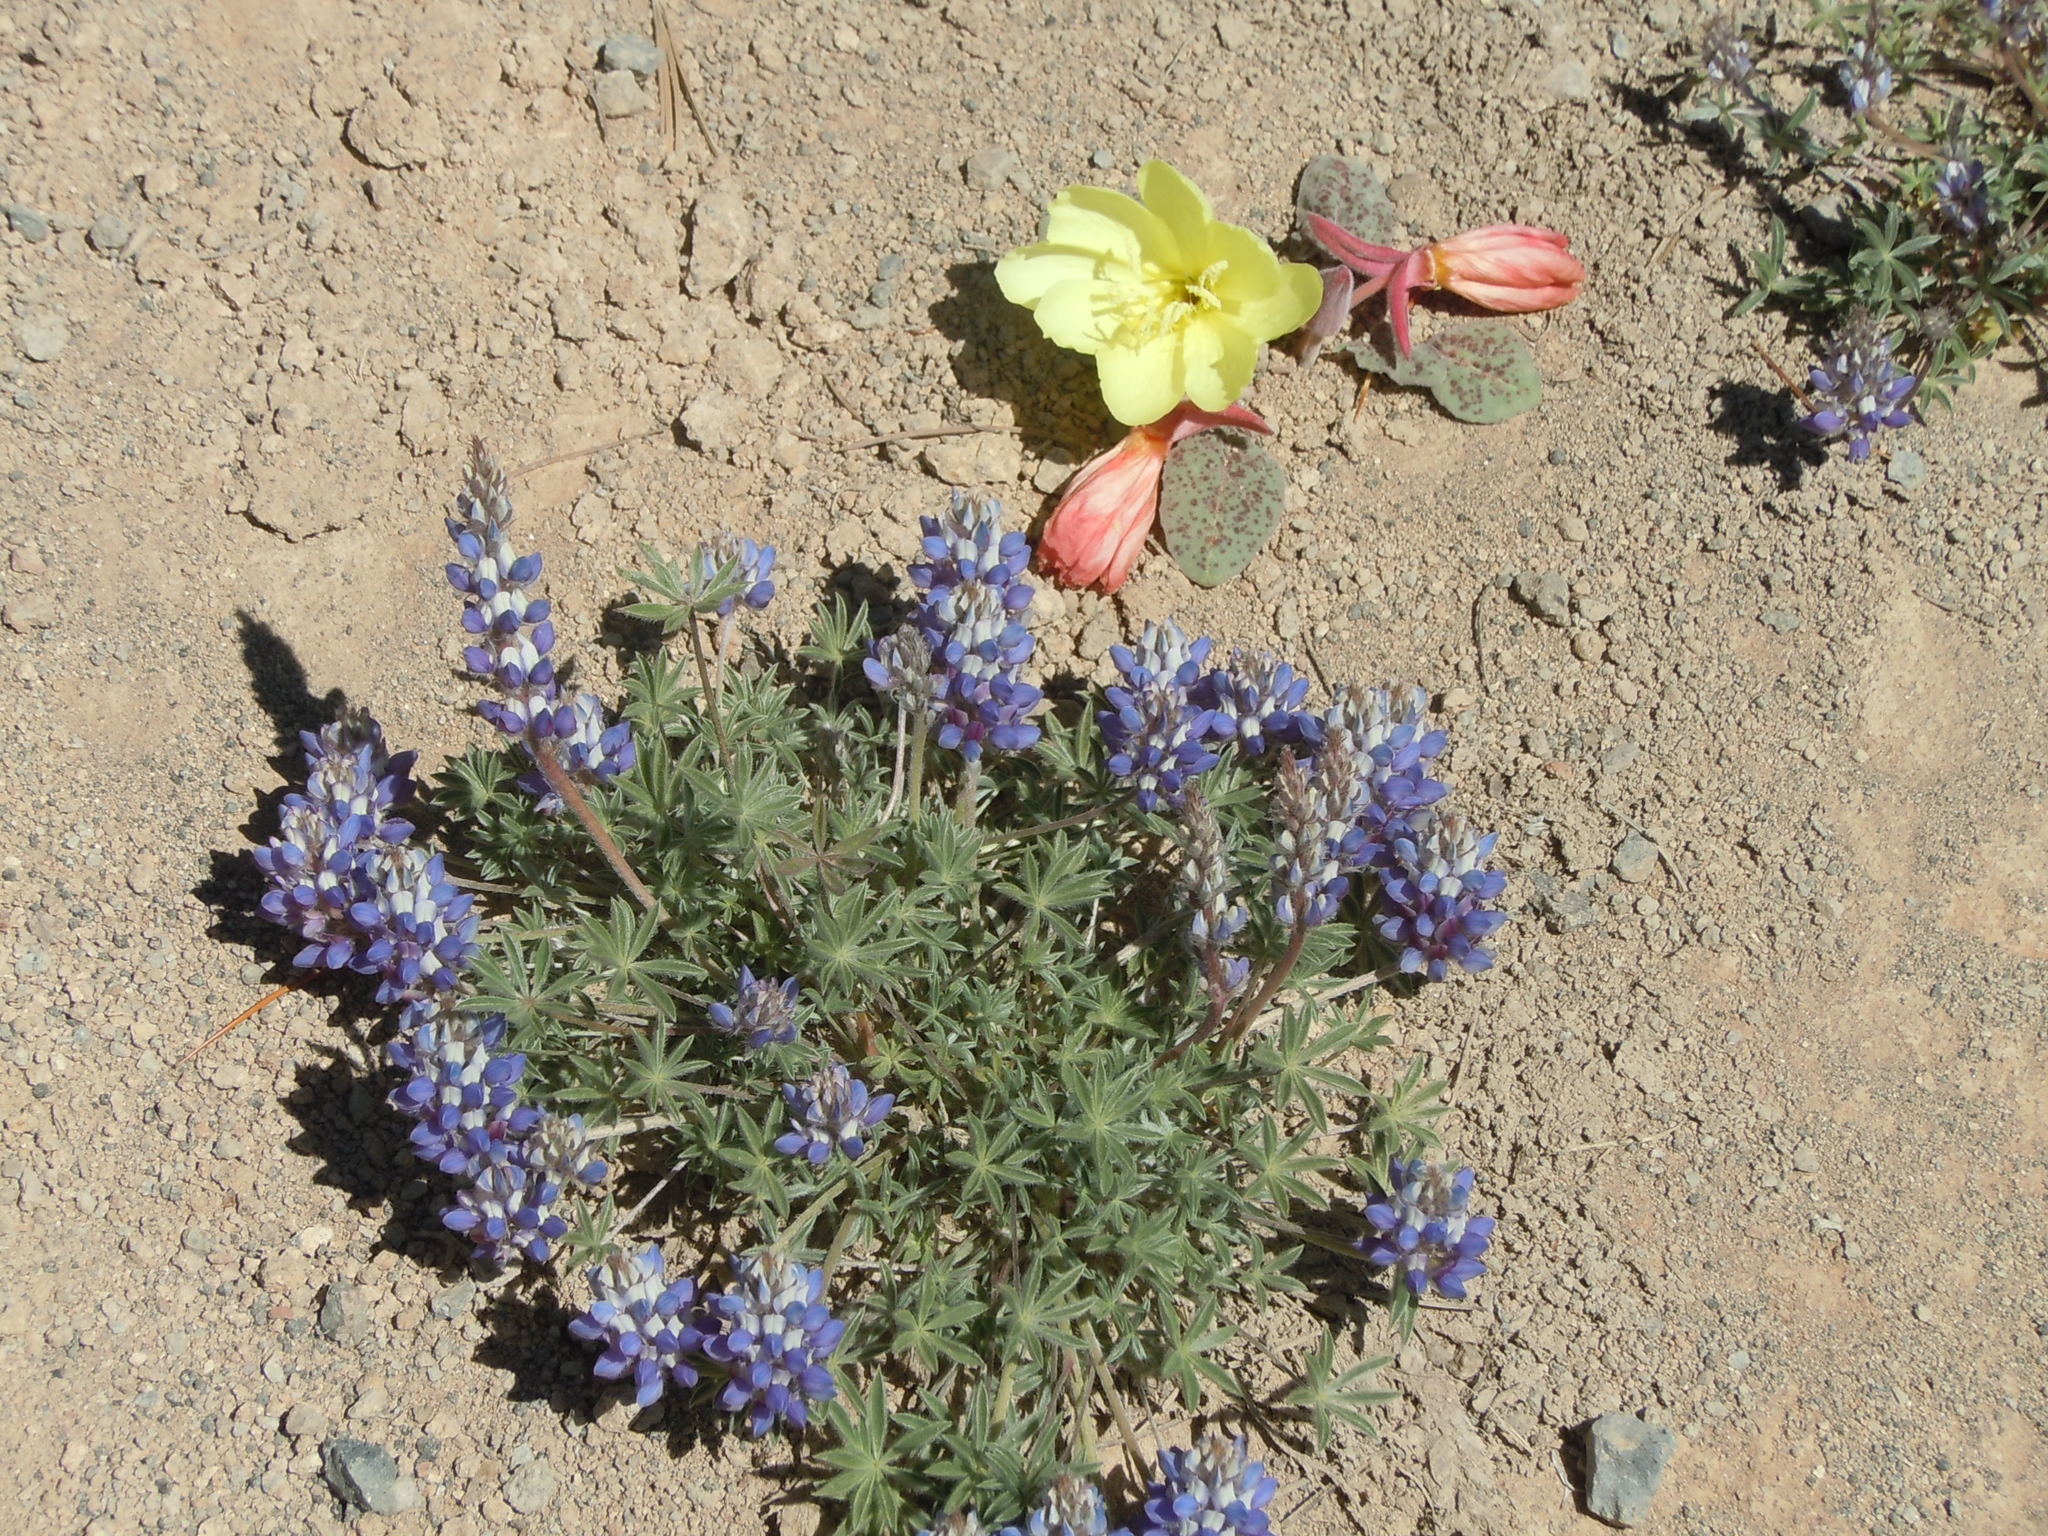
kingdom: Plantae
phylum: Tracheophyta
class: Magnoliopsida
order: Fabales
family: Fabaceae
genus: Lupinus
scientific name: Lupinus lepidus
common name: Prairie lupine
